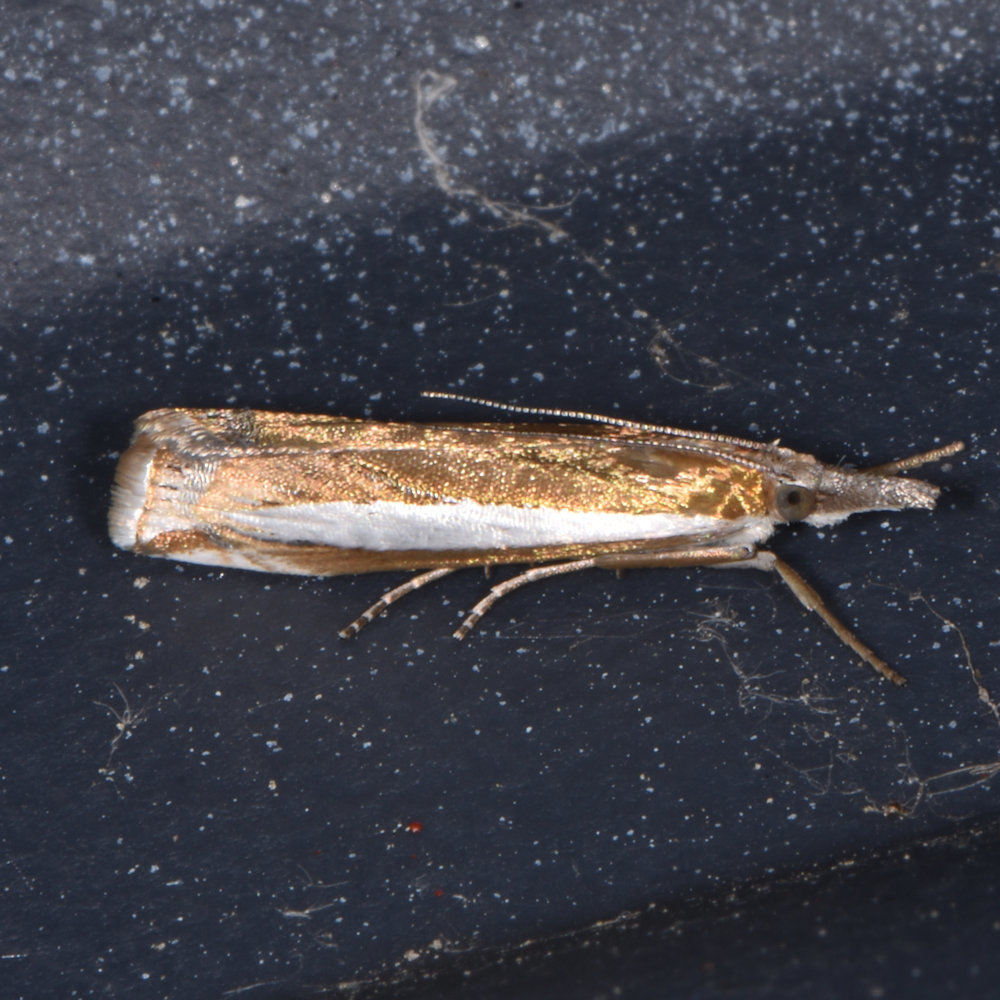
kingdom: Animalia
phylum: Arthropoda
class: Insecta
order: Lepidoptera
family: Crambidae
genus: Crambus
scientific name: Crambus praefectellus
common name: Common grass-veneer
